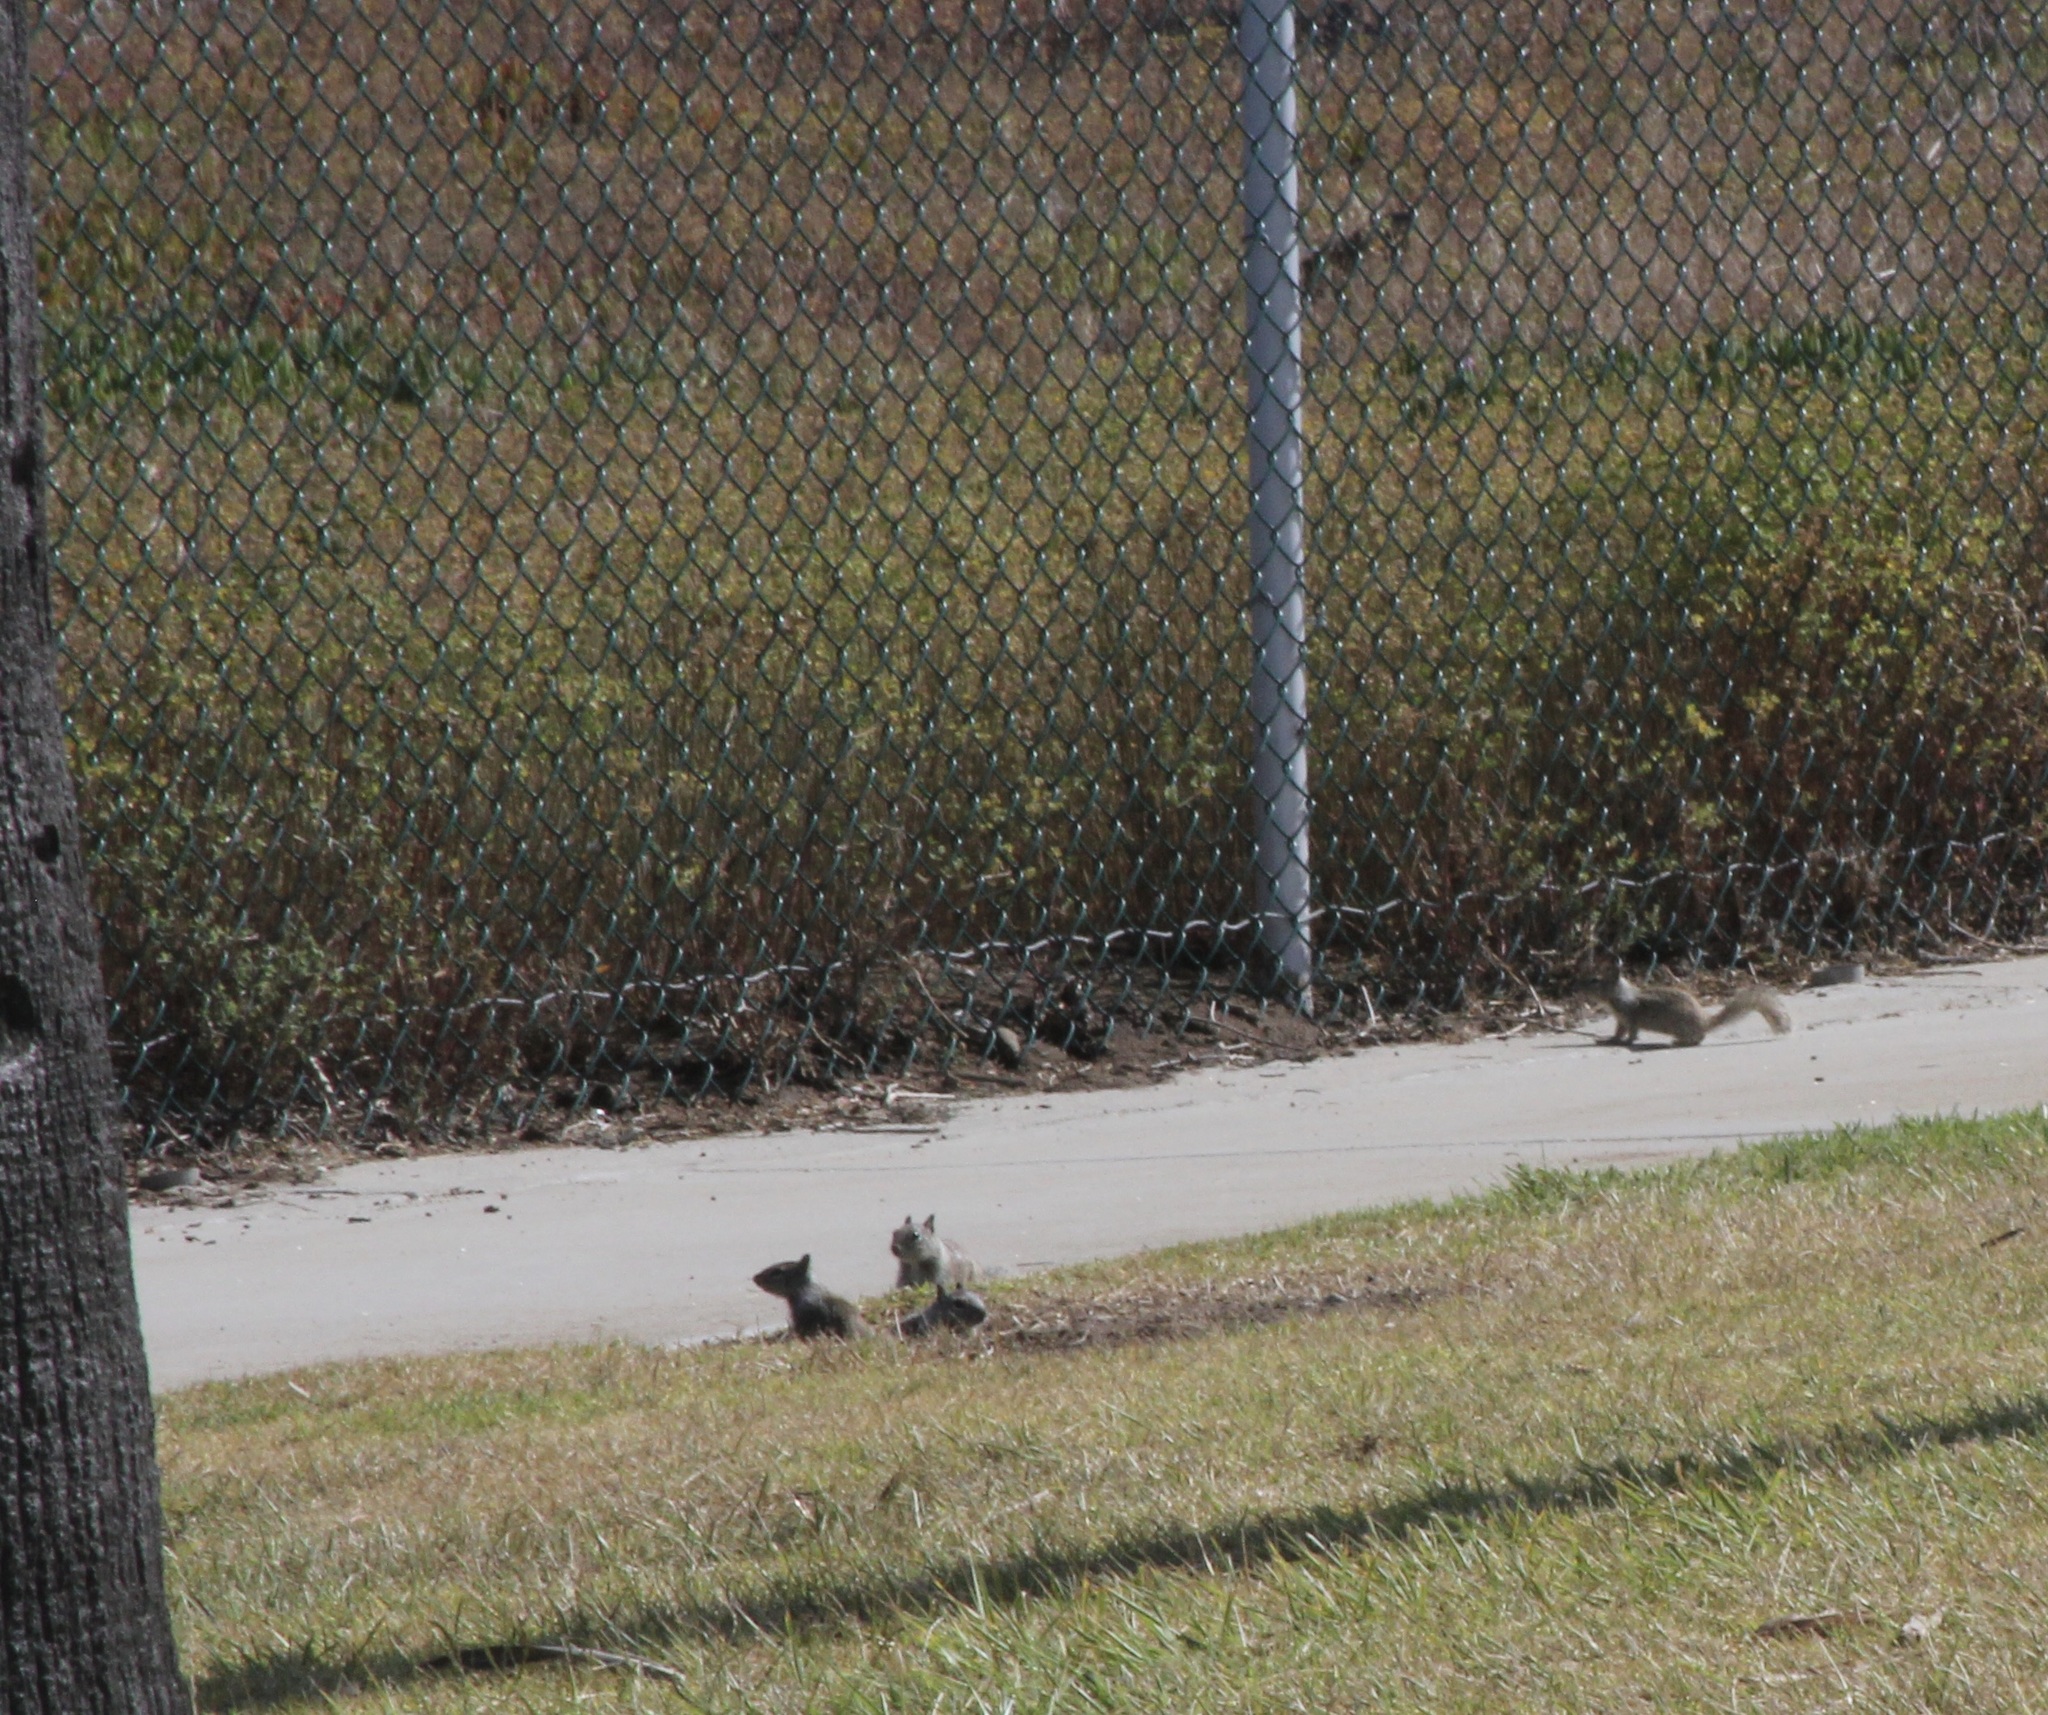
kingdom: Animalia
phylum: Chordata
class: Mammalia
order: Rodentia
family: Sciuridae
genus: Otospermophilus
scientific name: Otospermophilus beecheyi
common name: California ground squirrel
